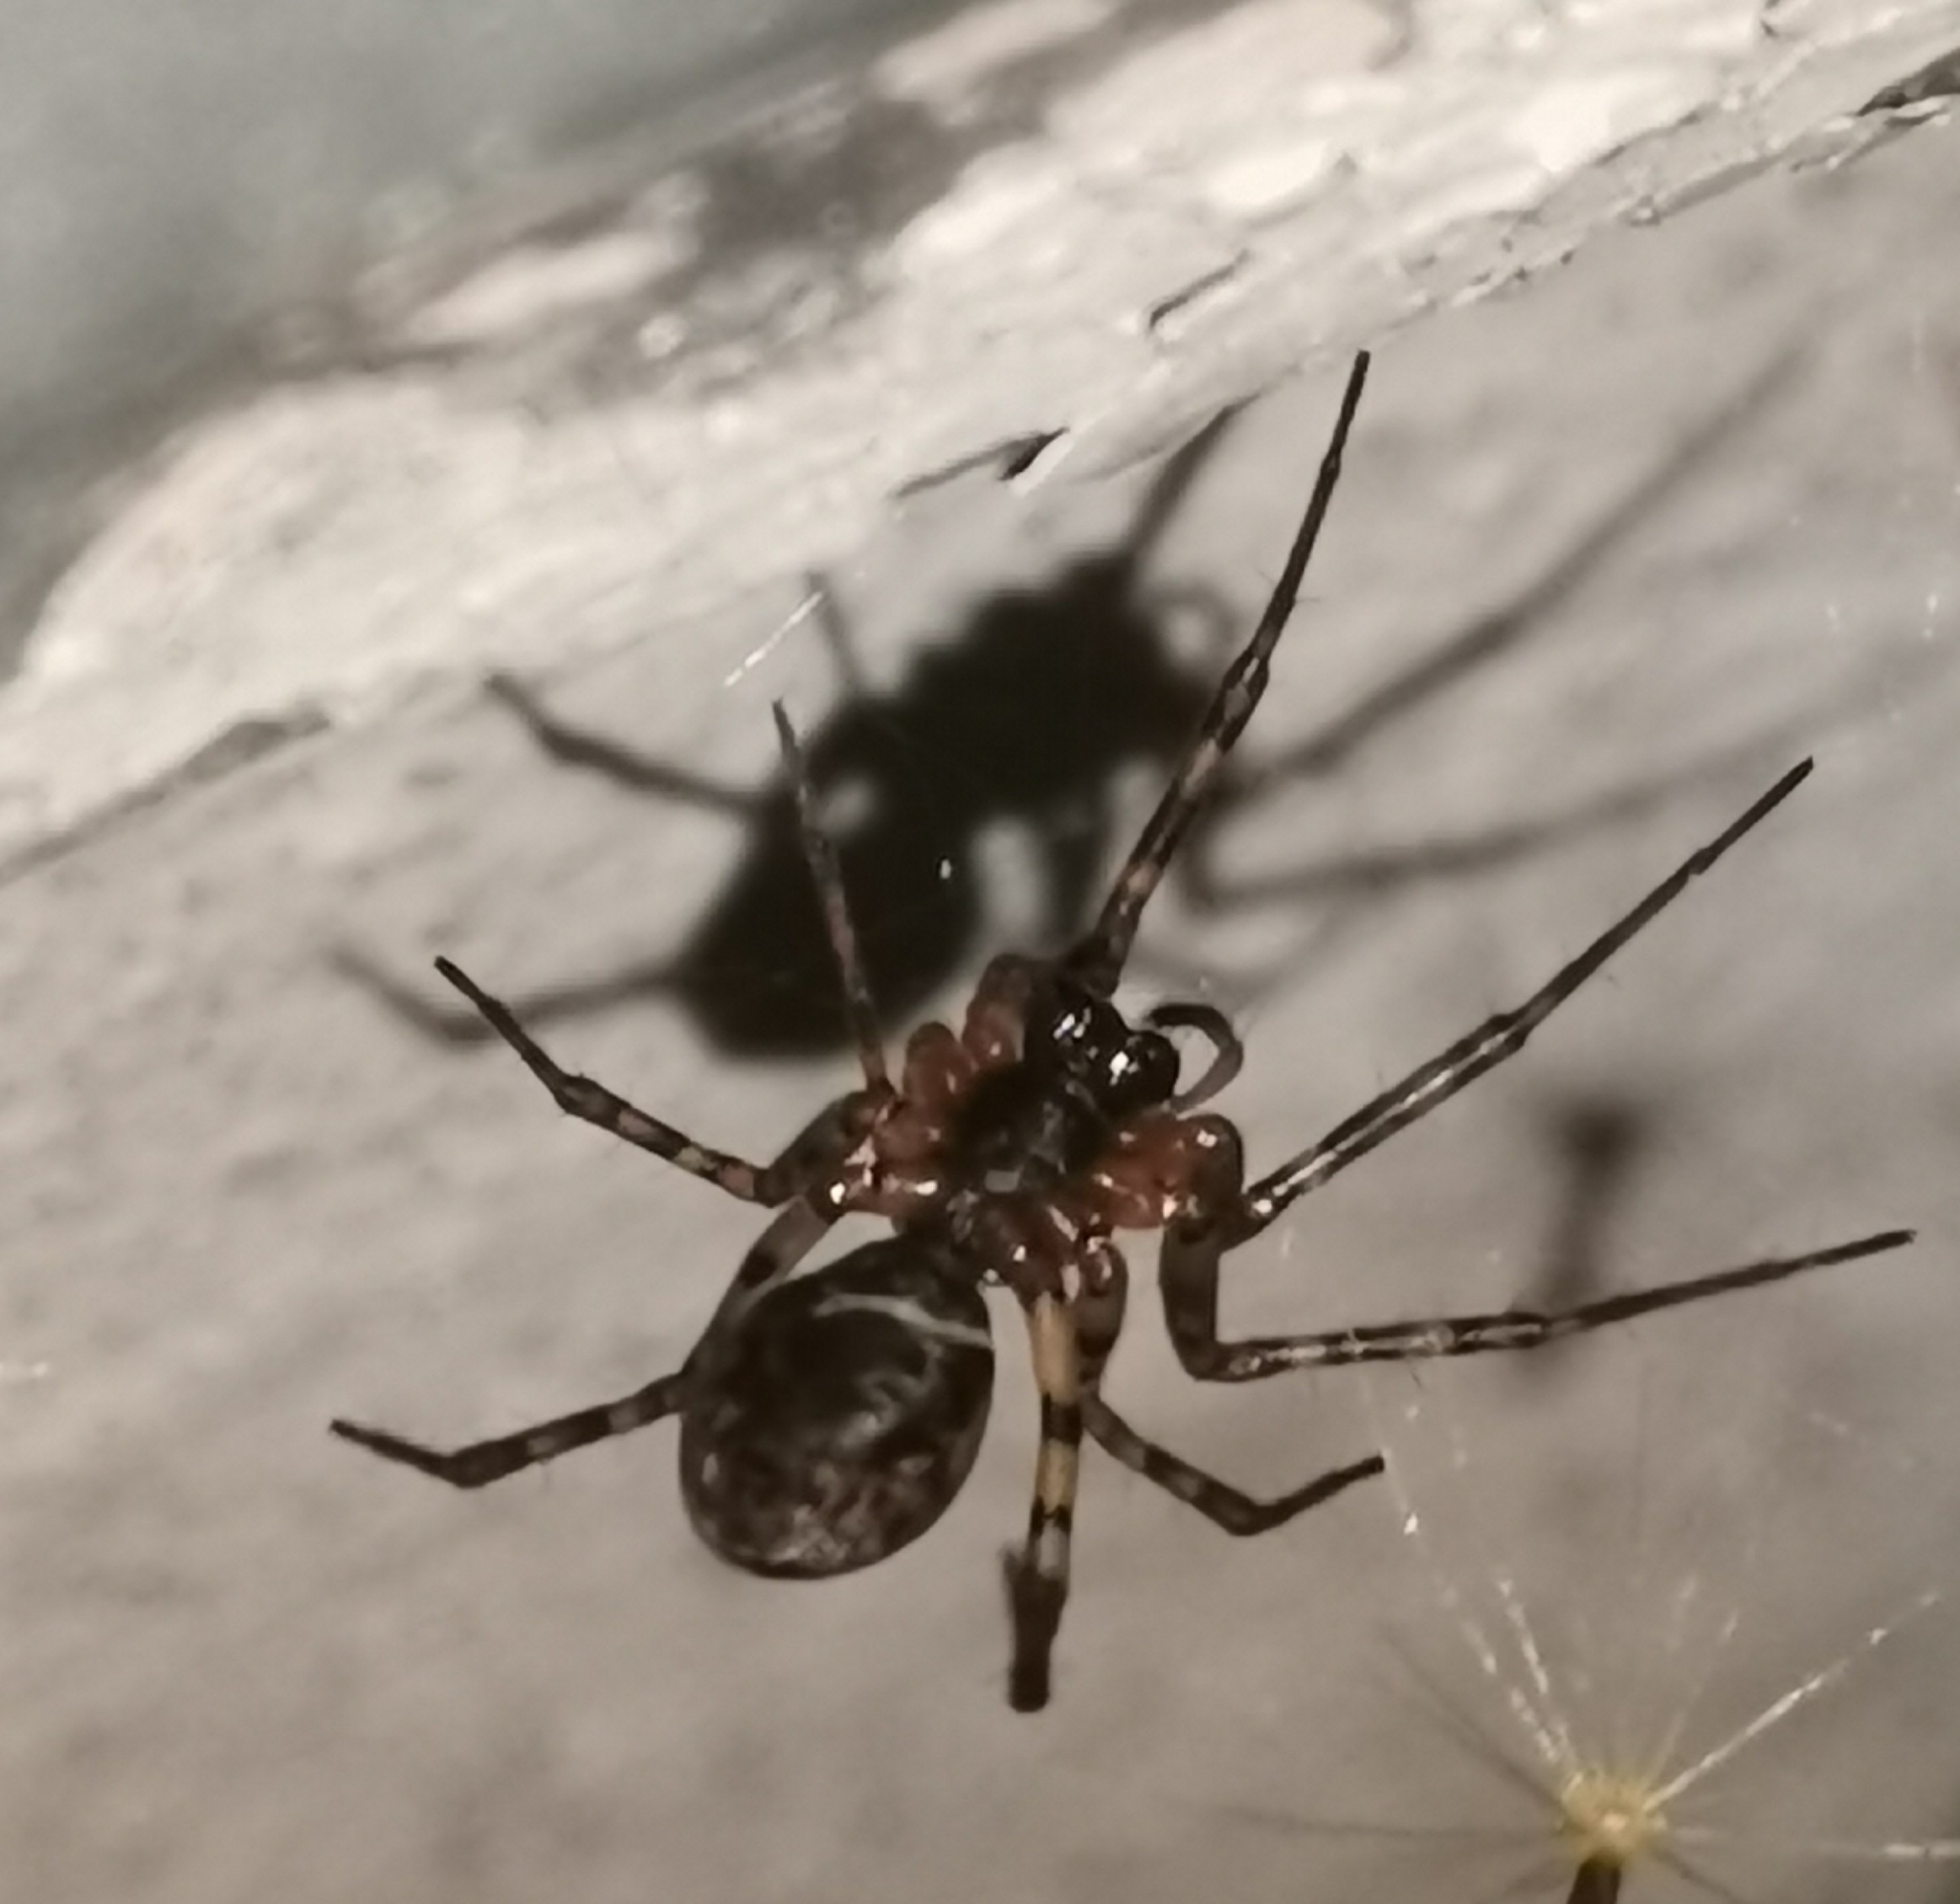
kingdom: Animalia
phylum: Arthropoda
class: Arachnida
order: Araneae
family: Linyphiidae
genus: Neriene
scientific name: Neriene montana
